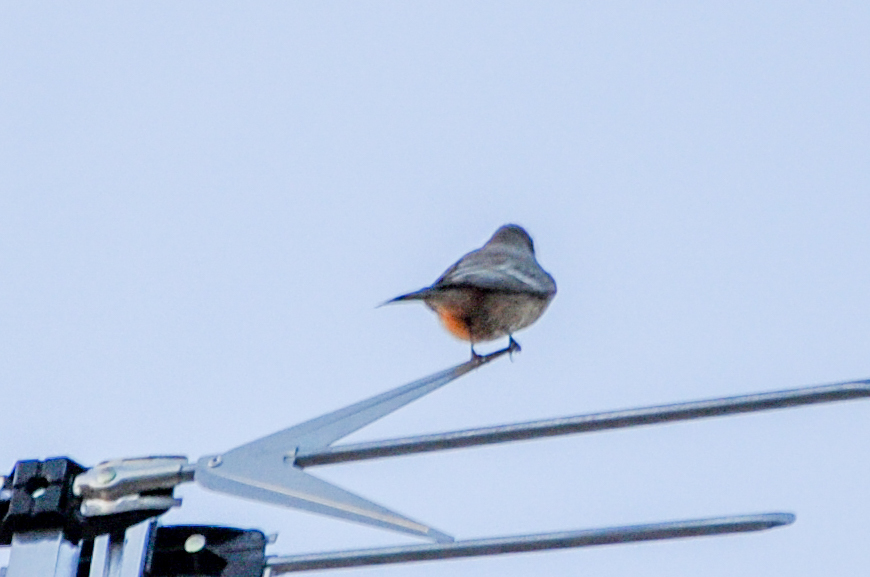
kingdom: Animalia
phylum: Chordata
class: Aves
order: Passeriformes
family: Tyrannidae
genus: Sayornis
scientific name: Sayornis saya
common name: Say's phoebe
